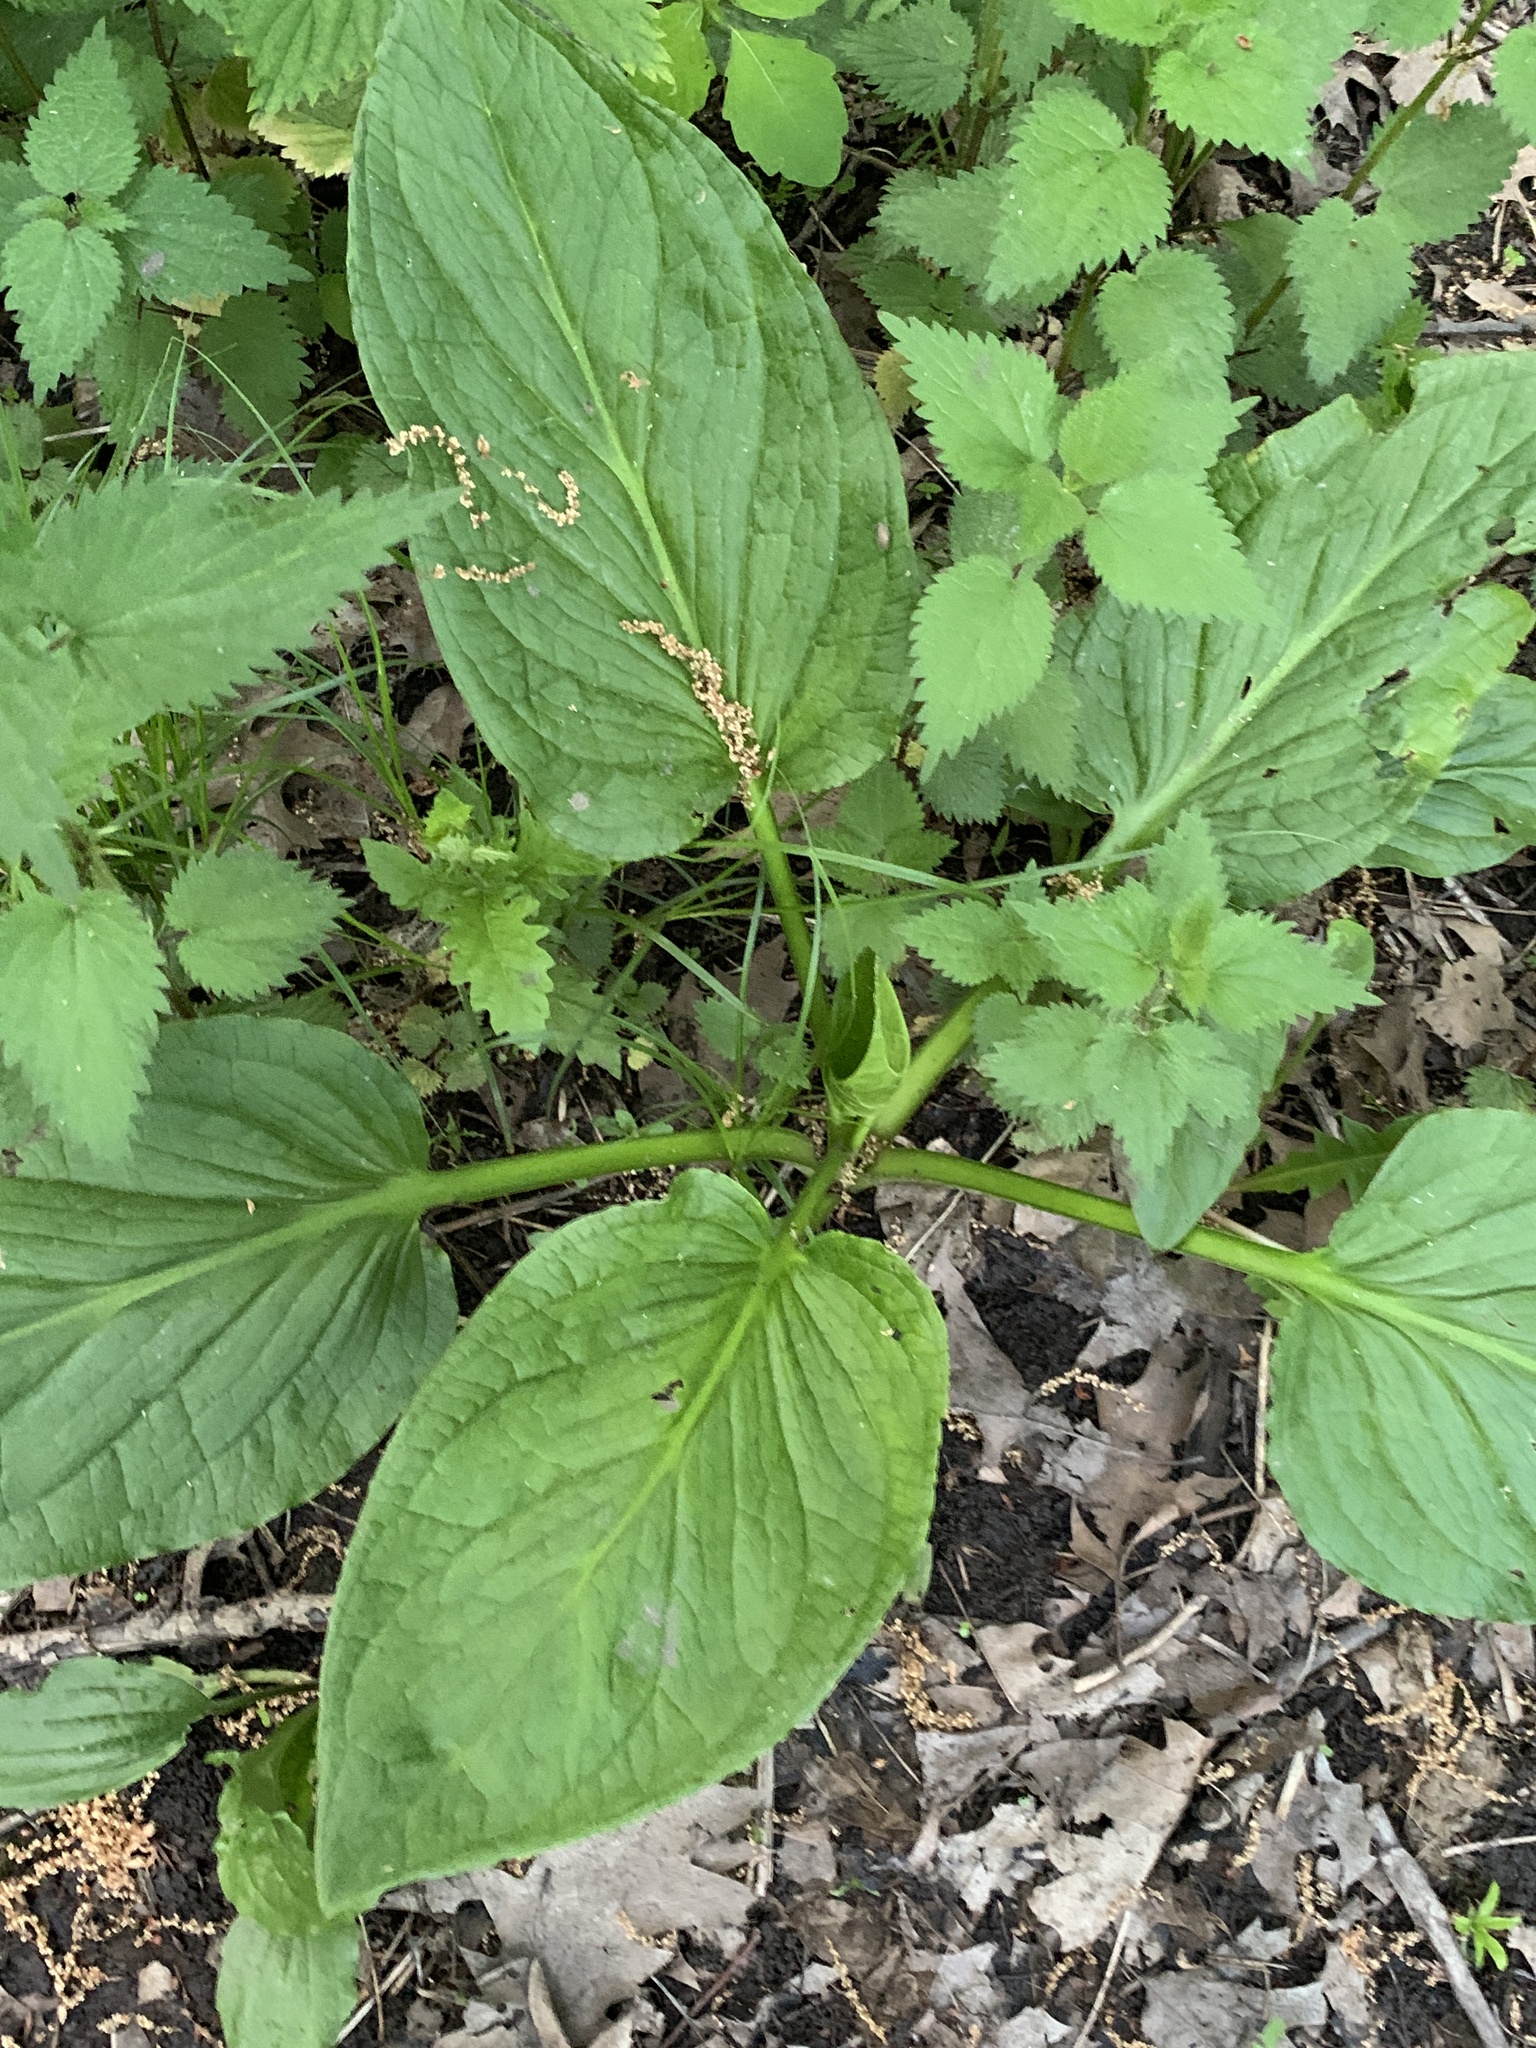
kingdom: Plantae
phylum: Tracheophyta
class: Liliopsida
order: Alismatales
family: Araceae
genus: Symplocarpus
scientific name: Symplocarpus foetidus
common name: Eastern skunk cabbage
